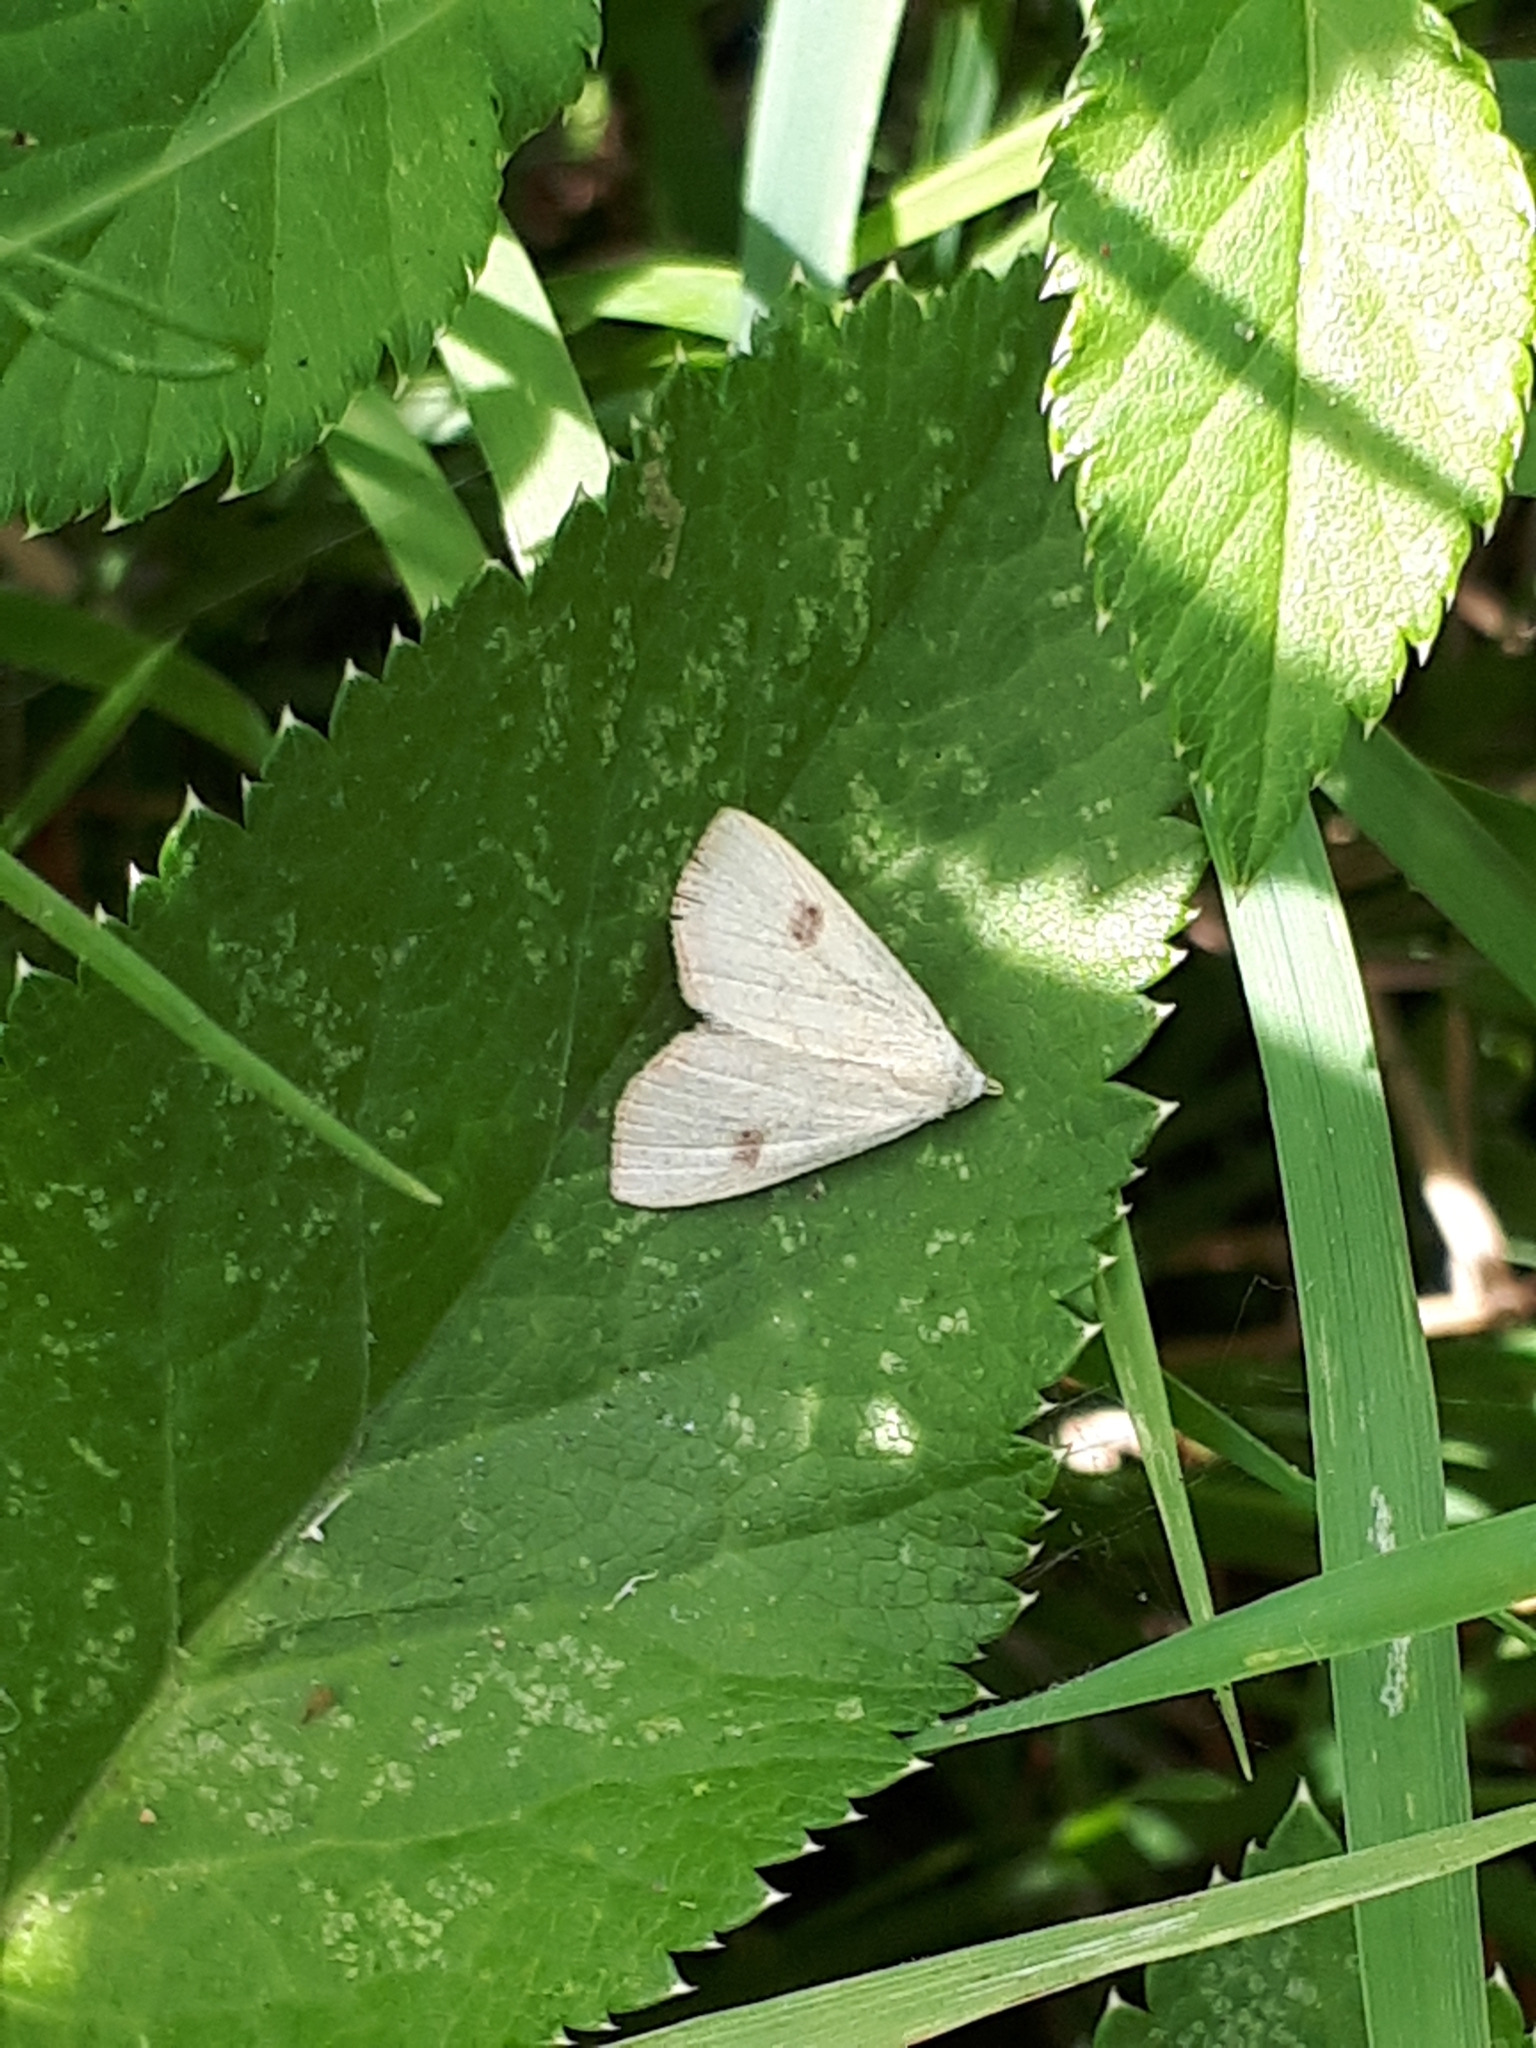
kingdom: Animalia
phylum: Arthropoda
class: Insecta
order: Lepidoptera
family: Erebidae
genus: Rivula
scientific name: Rivula sericealis
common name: Straw dot
